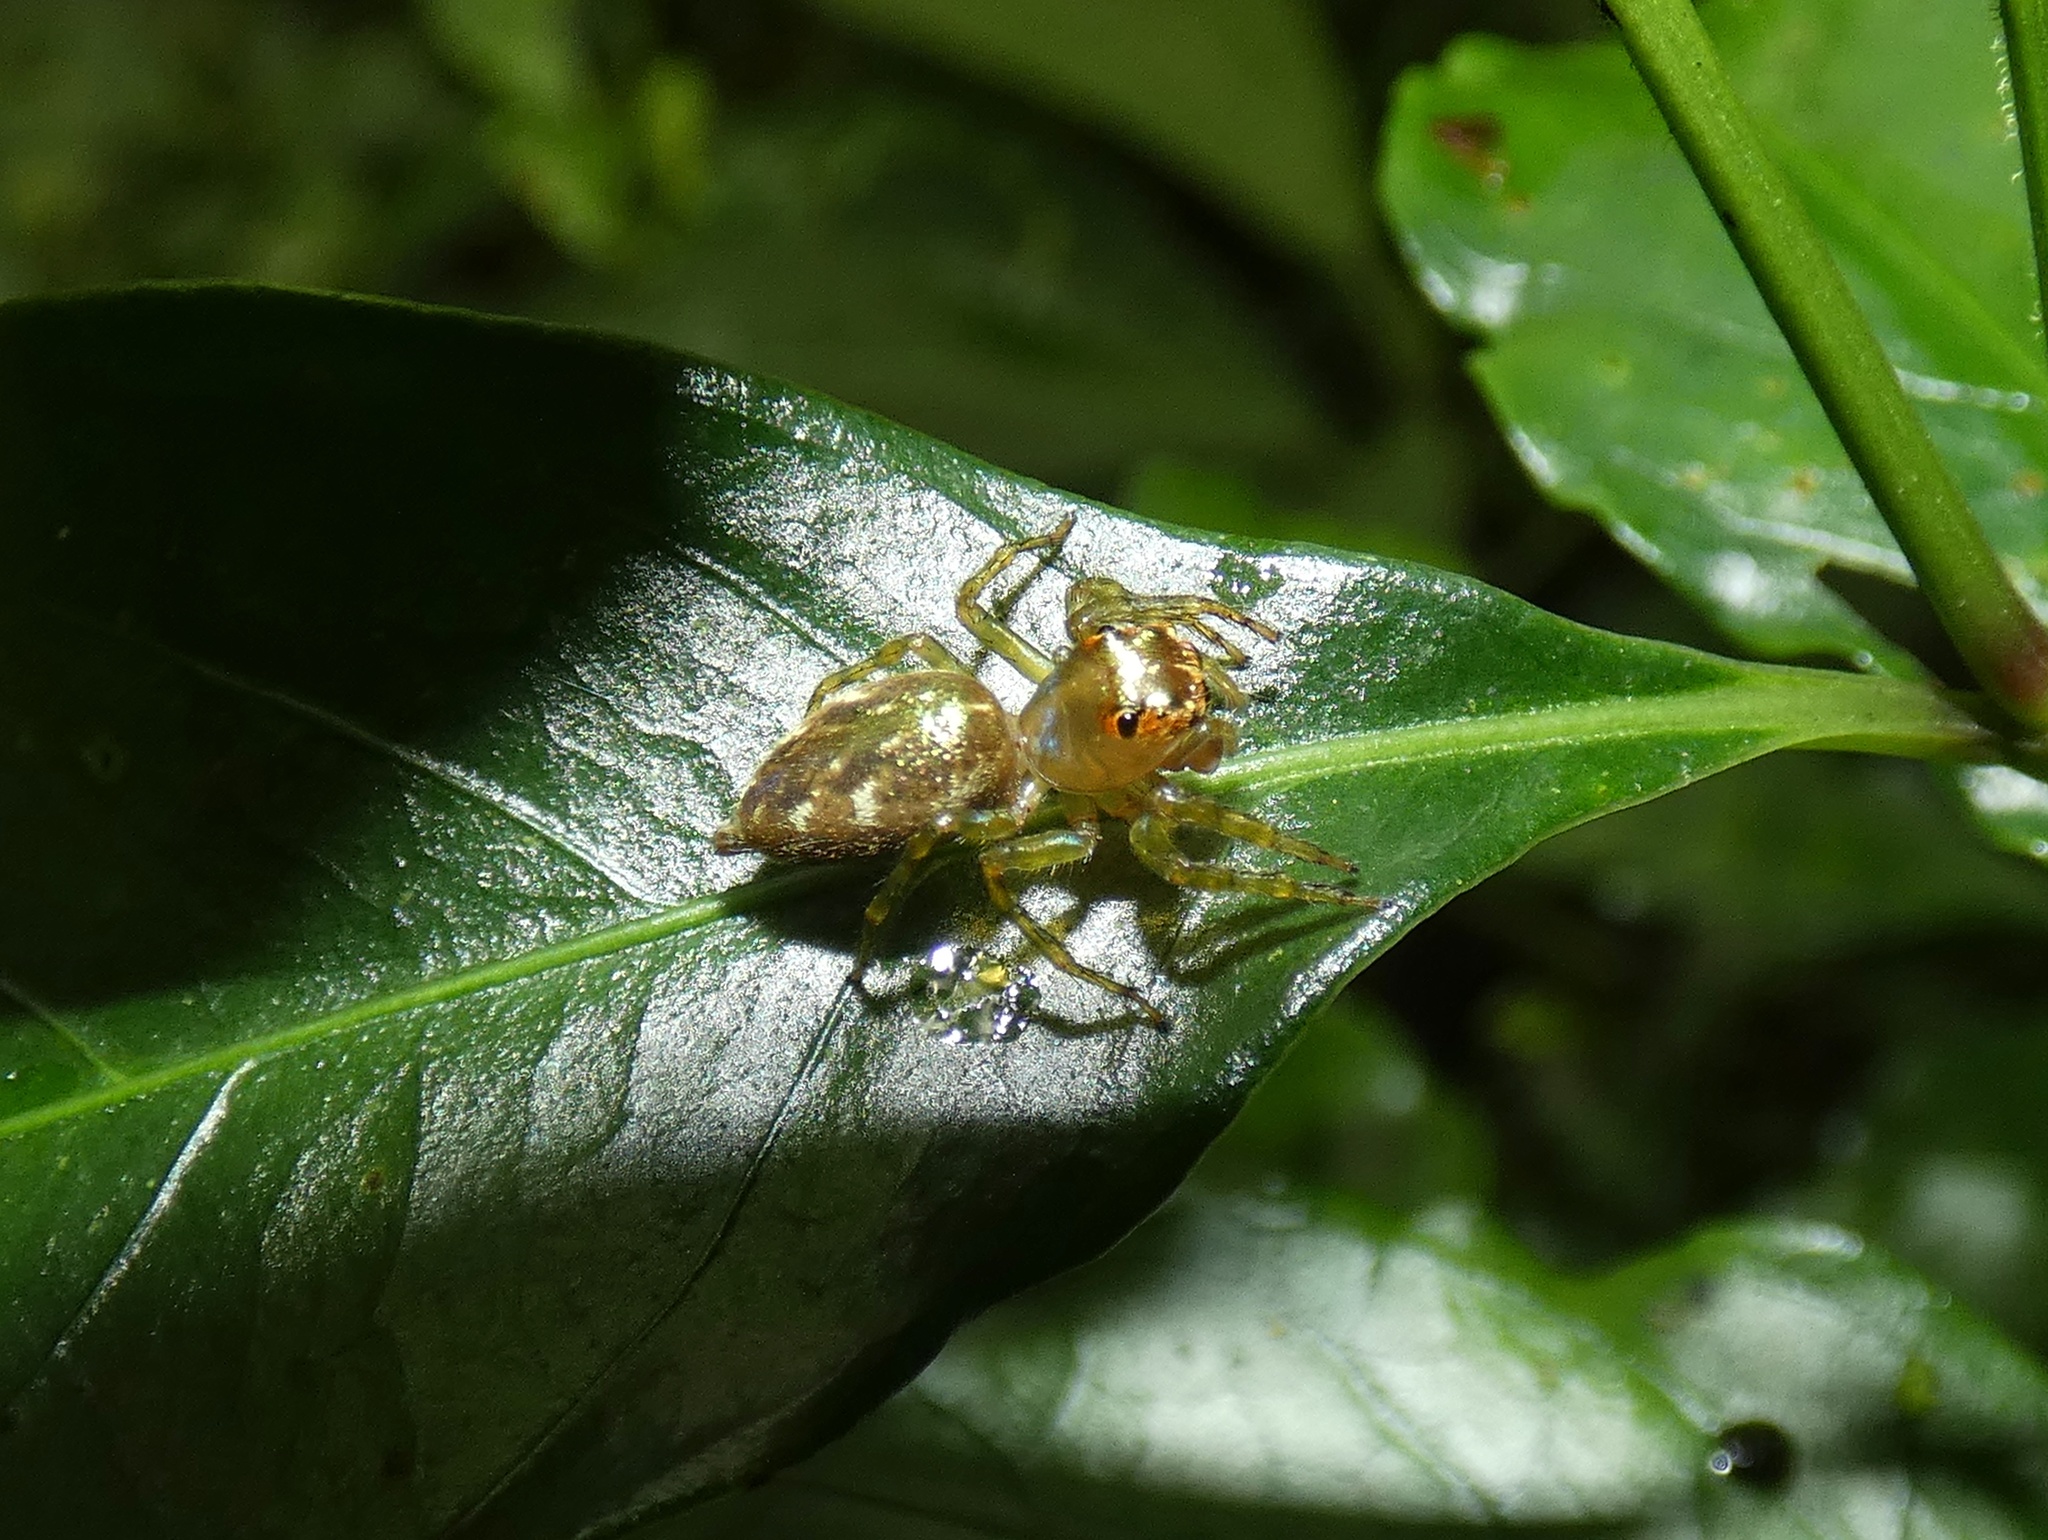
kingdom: Animalia
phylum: Arthropoda
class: Arachnida
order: Araneae
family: Salticidae
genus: Cobanus
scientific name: Cobanus unicolor
